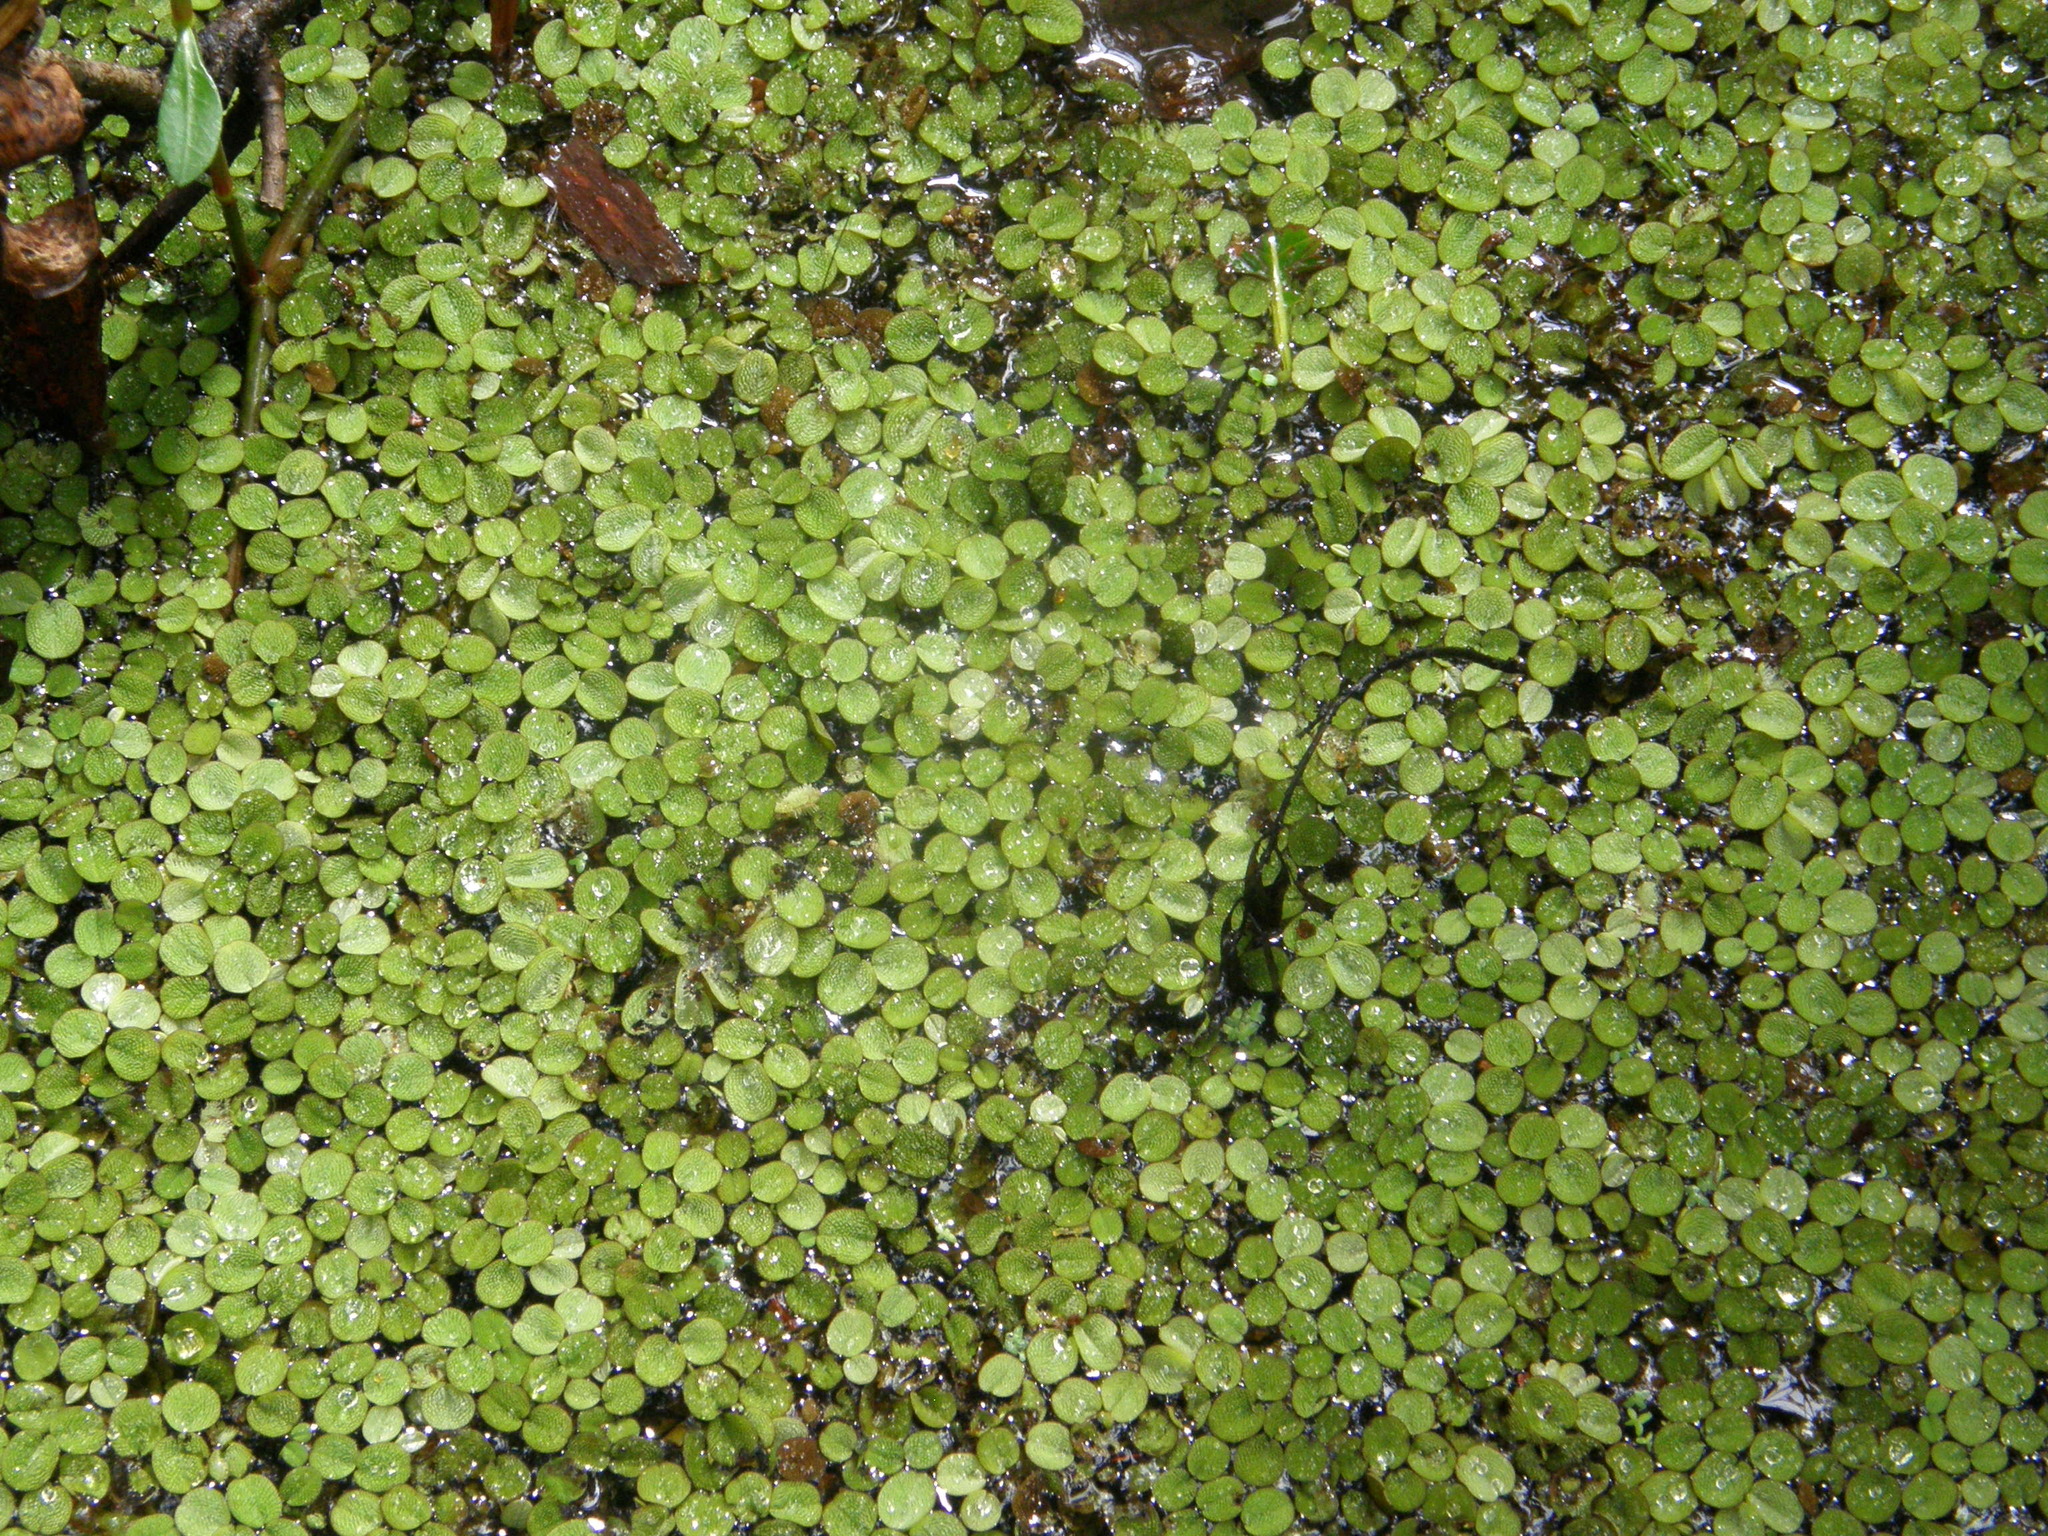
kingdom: Plantae
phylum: Tracheophyta
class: Polypodiopsida
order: Salviniales
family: Salviniaceae
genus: Salvinia
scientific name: Salvinia minima
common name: Water spangles
